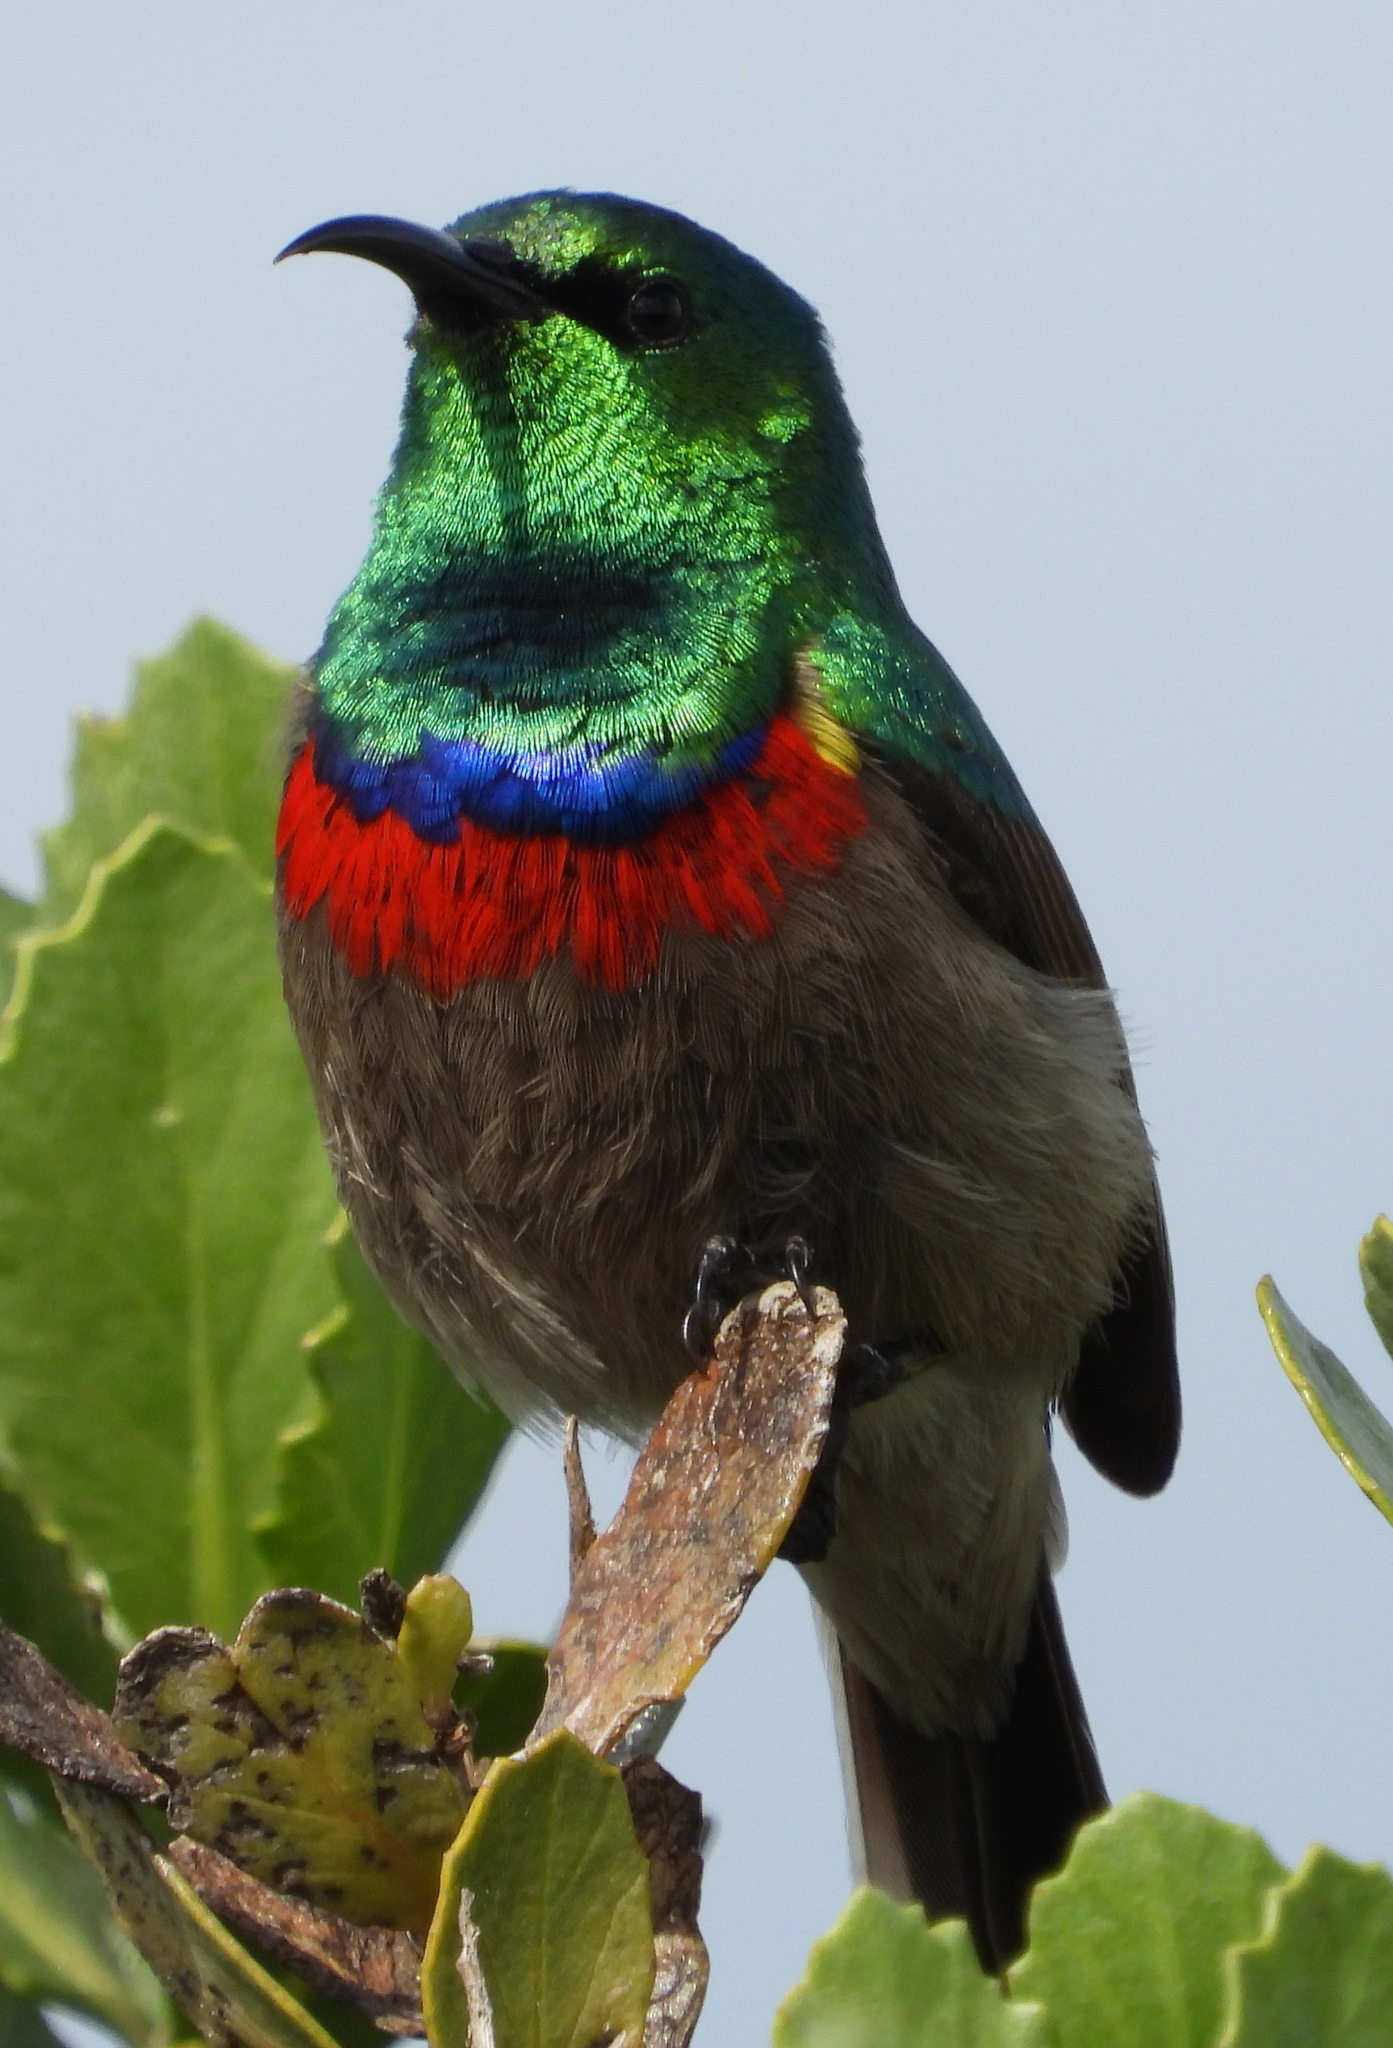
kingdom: Animalia
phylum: Chordata
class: Aves
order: Passeriformes
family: Nectariniidae
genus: Cinnyris
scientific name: Cinnyris chalybeus
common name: Southern double-collared sunbird
